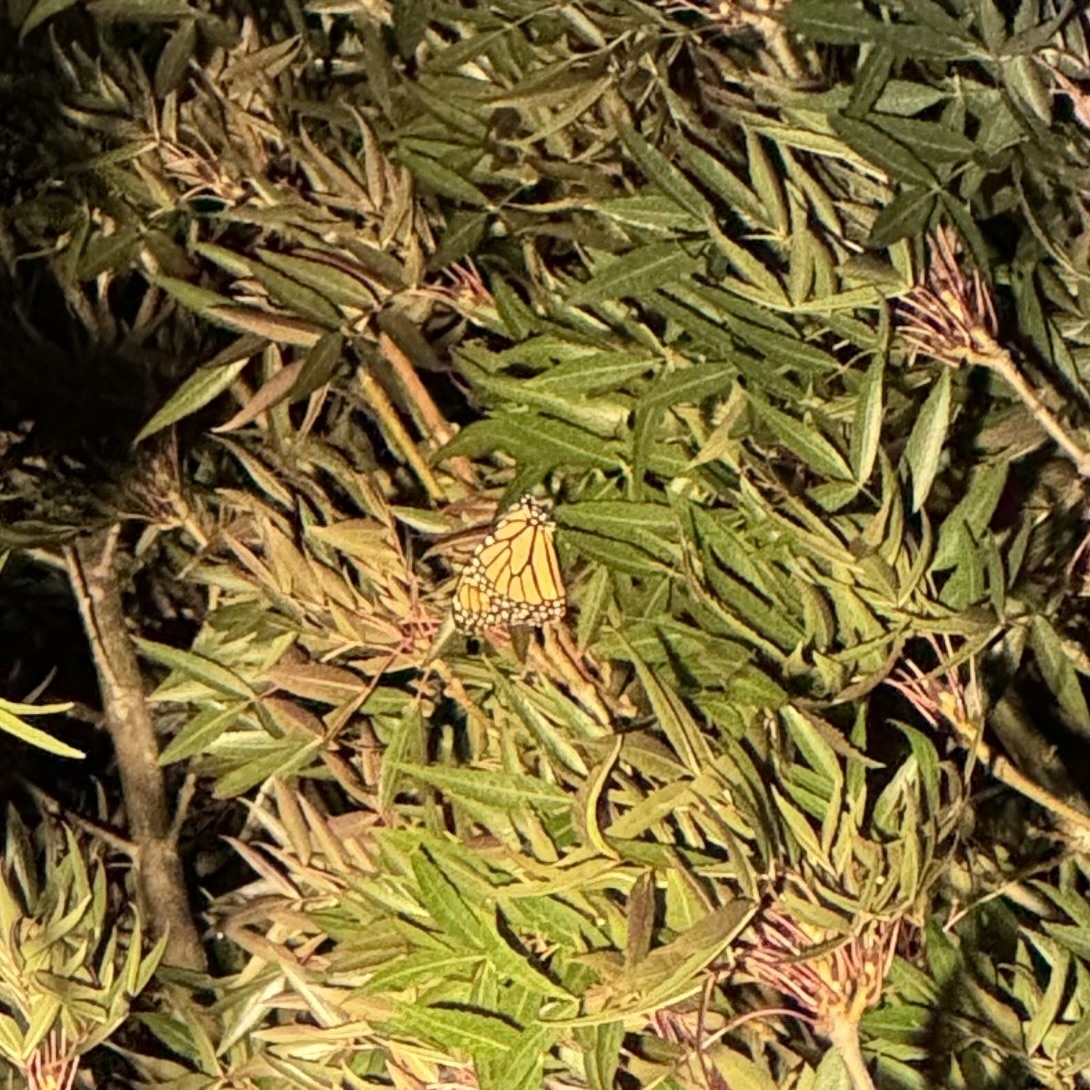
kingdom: Animalia
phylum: Arthropoda
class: Insecta
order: Lepidoptera
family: Nymphalidae
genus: Danaus
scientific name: Danaus plexippus
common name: Monarch
